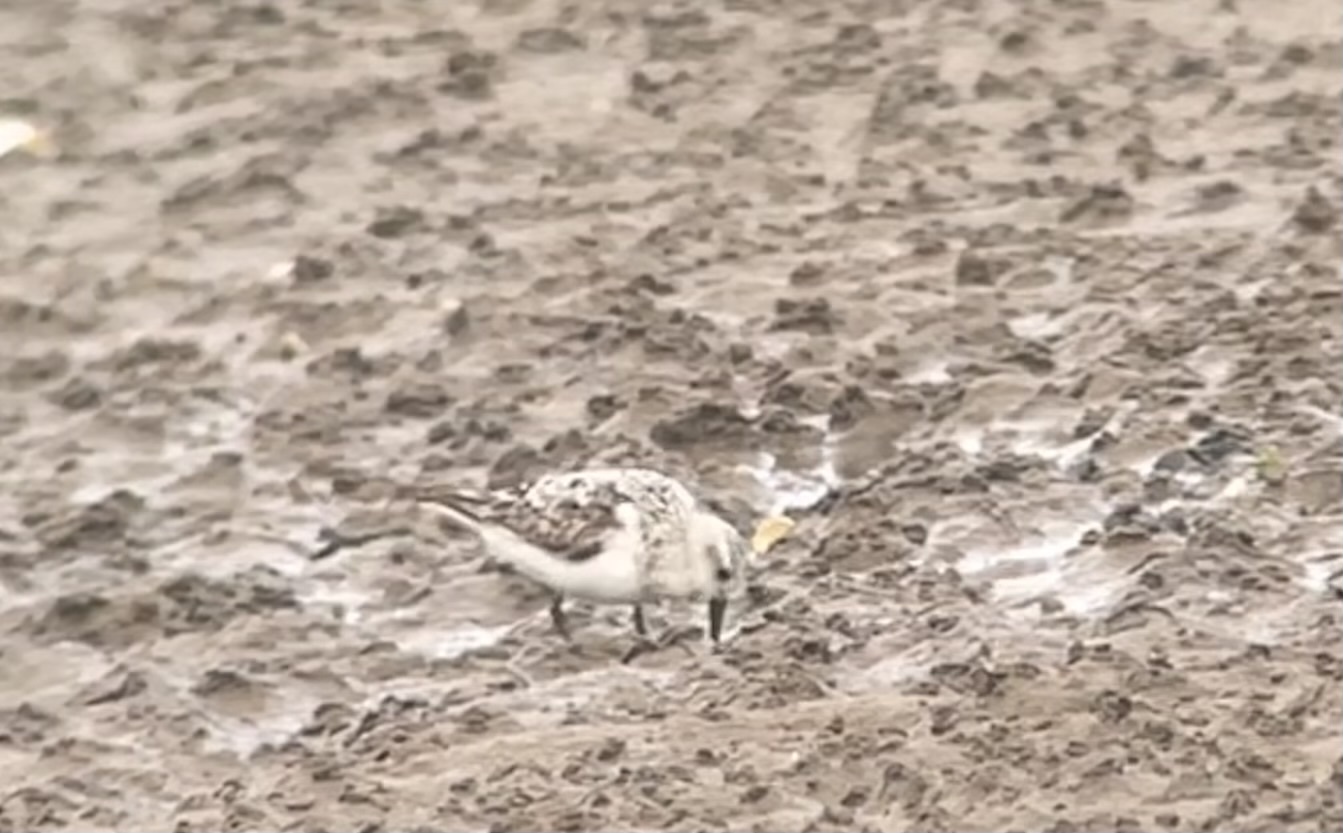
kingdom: Animalia
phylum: Chordata
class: Aves
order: Charadriiformes
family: Scolopacidae
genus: Calidris
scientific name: Calidris alba
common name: Sanderling
